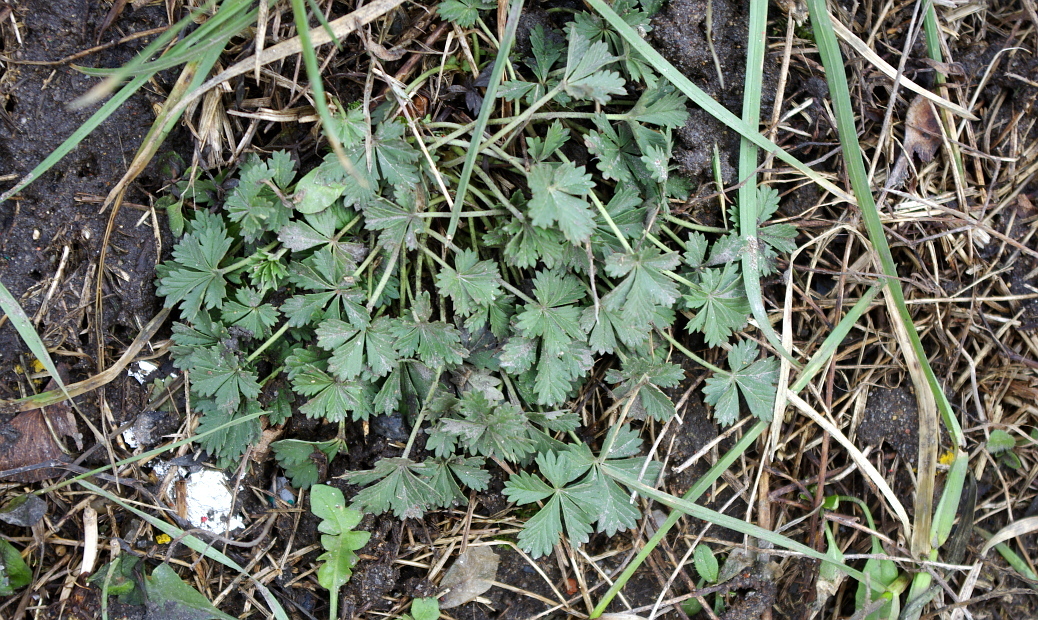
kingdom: Plantae
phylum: Tracheophyta
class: Magnoliopsida
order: Rosales
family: Rosaceae
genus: Potentilla
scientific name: Potentilla argentea
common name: Hoary cinquefoil
